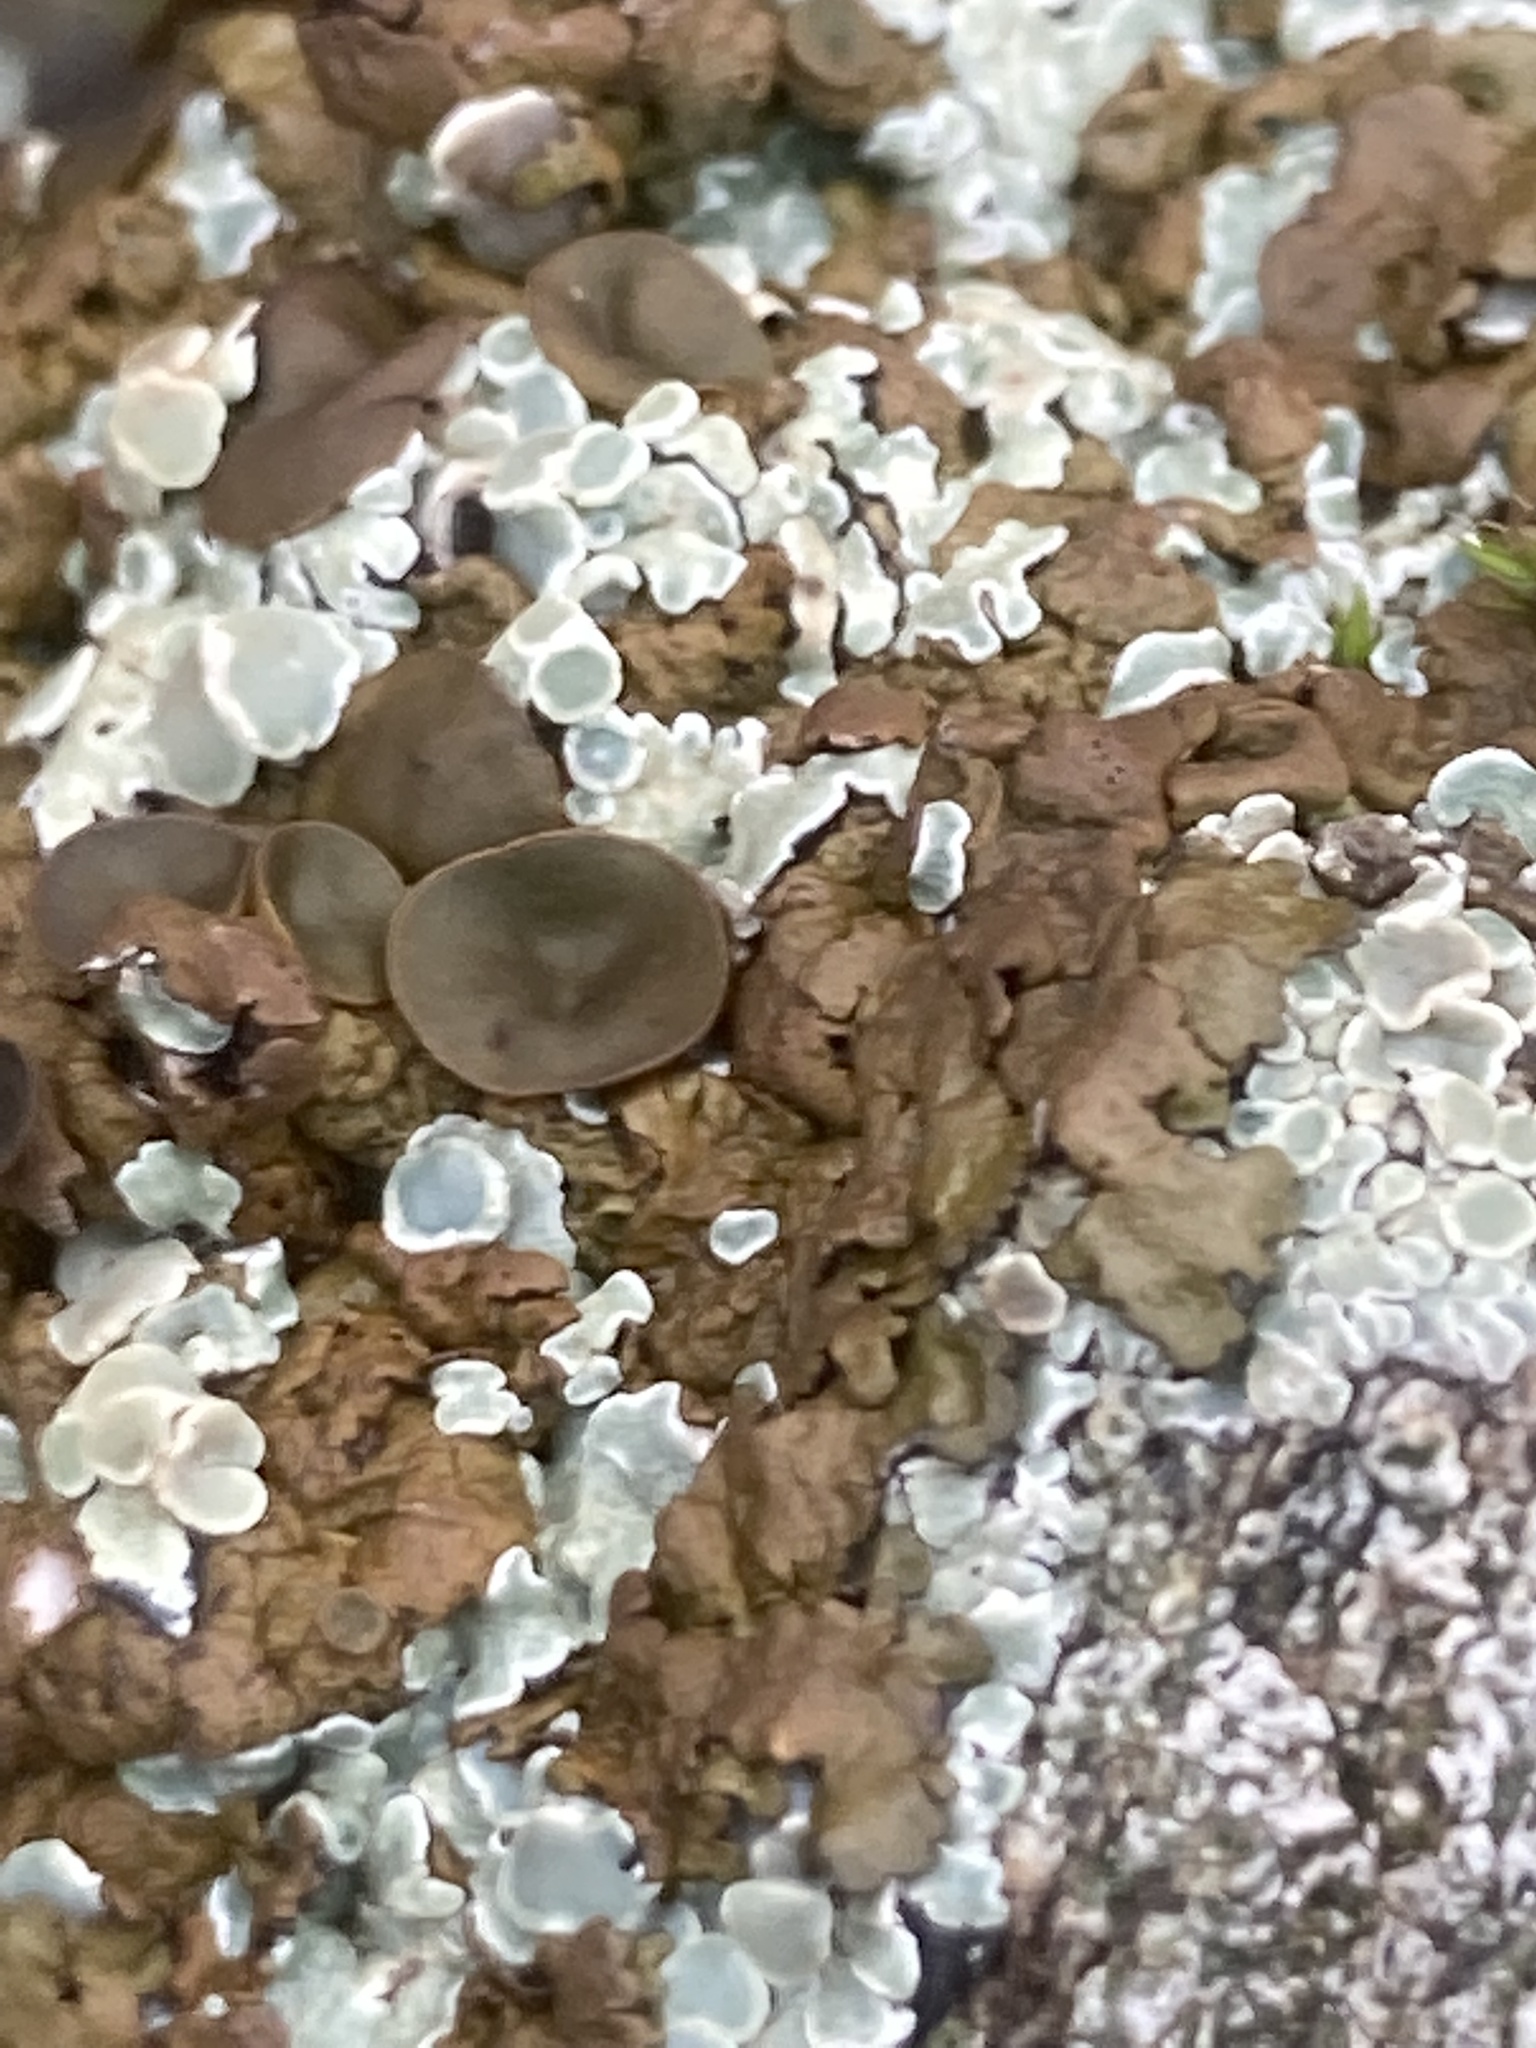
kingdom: Fungi
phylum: Ascomycota
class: Lecanoromycetes
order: Lecanorales
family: Lecanoraceae
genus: Protoparmeliopsis
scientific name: Protoparmeliopsis muralis
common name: Stonewall rim lichen
